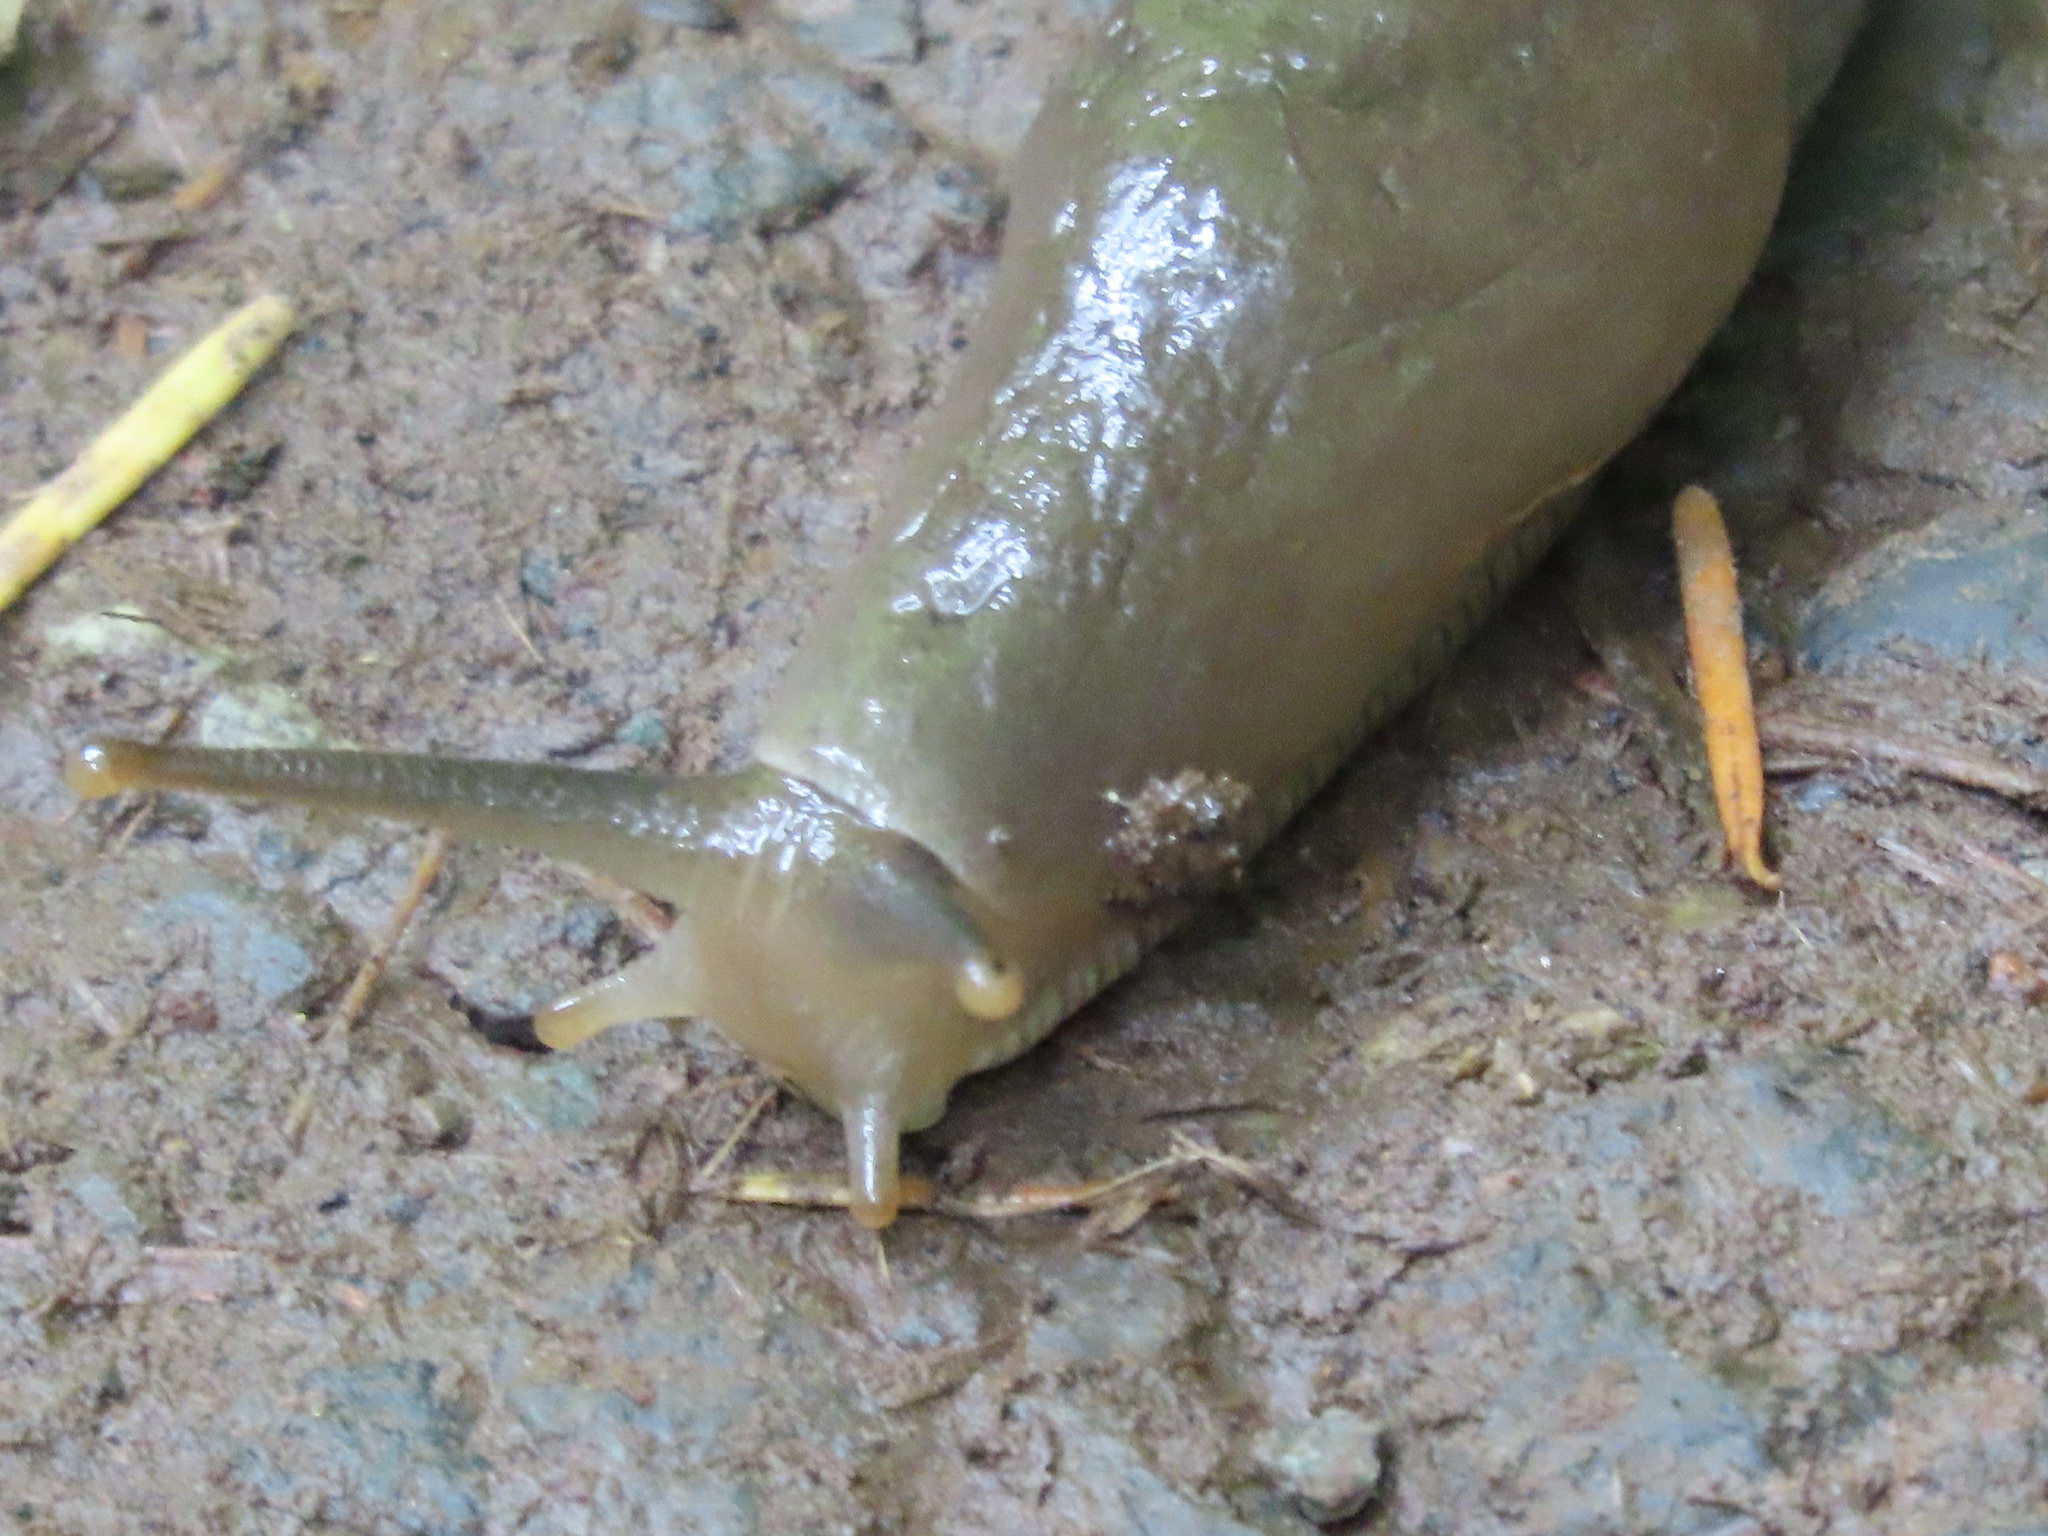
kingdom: Animalia
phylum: Mollusca
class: Gastropoda
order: Stylommatophora
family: Ariolimacidae
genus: Ariolimax
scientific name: Ariolimax columbianus
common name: Pacific banana slug
